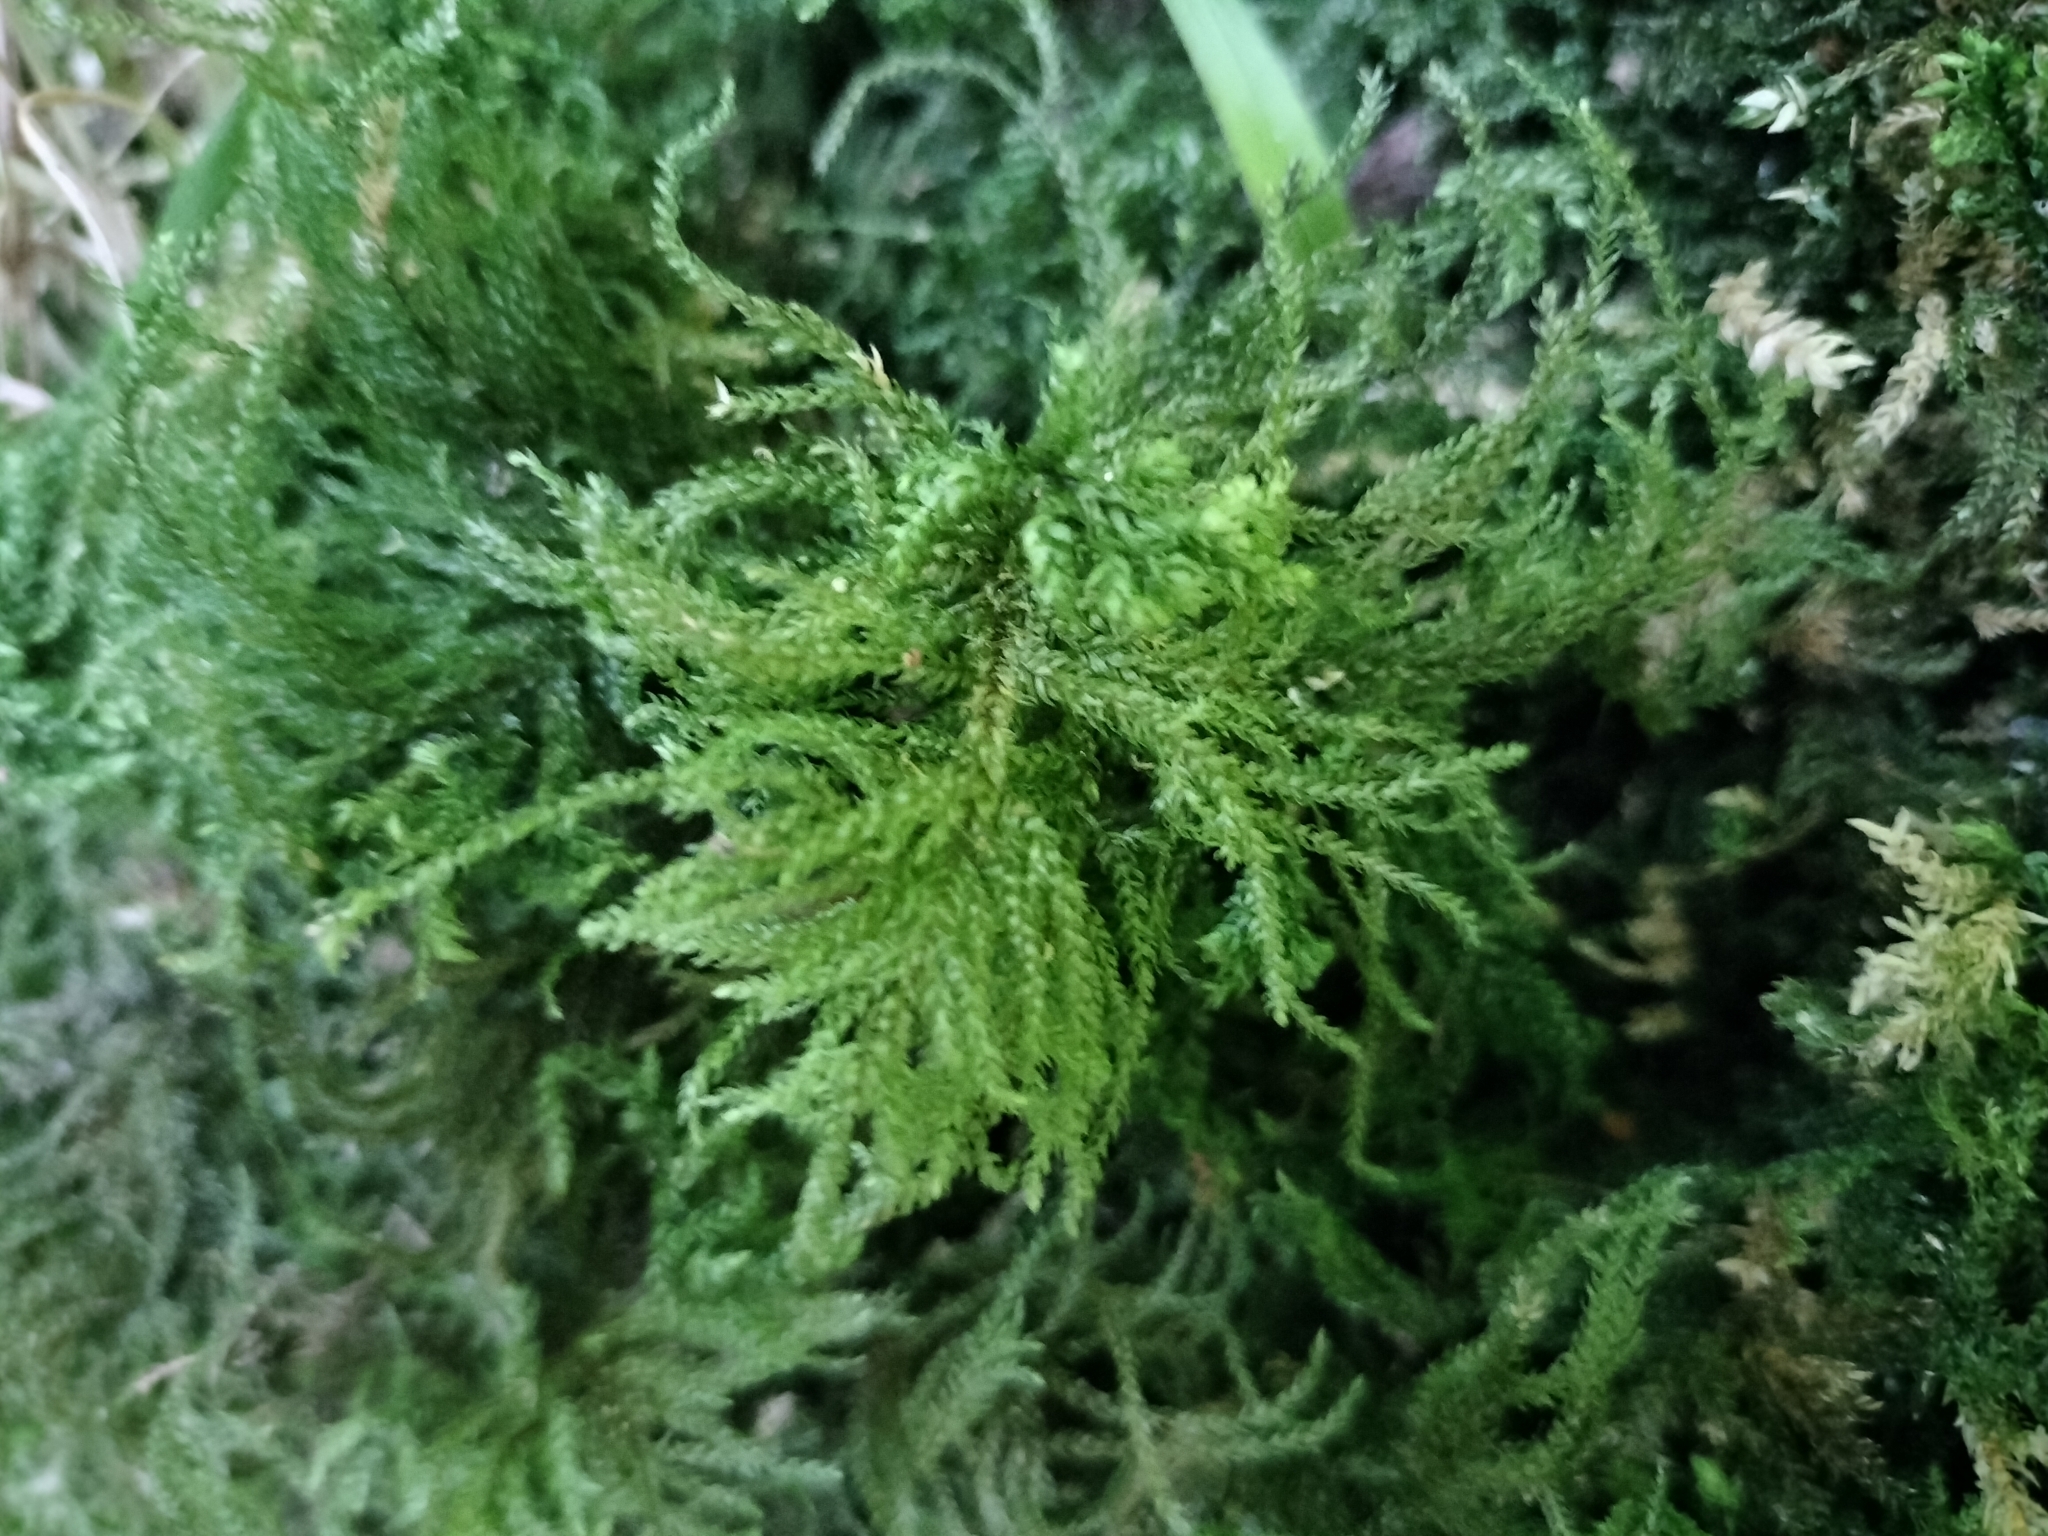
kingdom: Plantae
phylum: Bryophyta
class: Bryopsida
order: Hypnales
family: Neckeraceae
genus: Thamnobryum
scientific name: Thamnobryum alopecurum
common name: Fox-tail feather-moss
